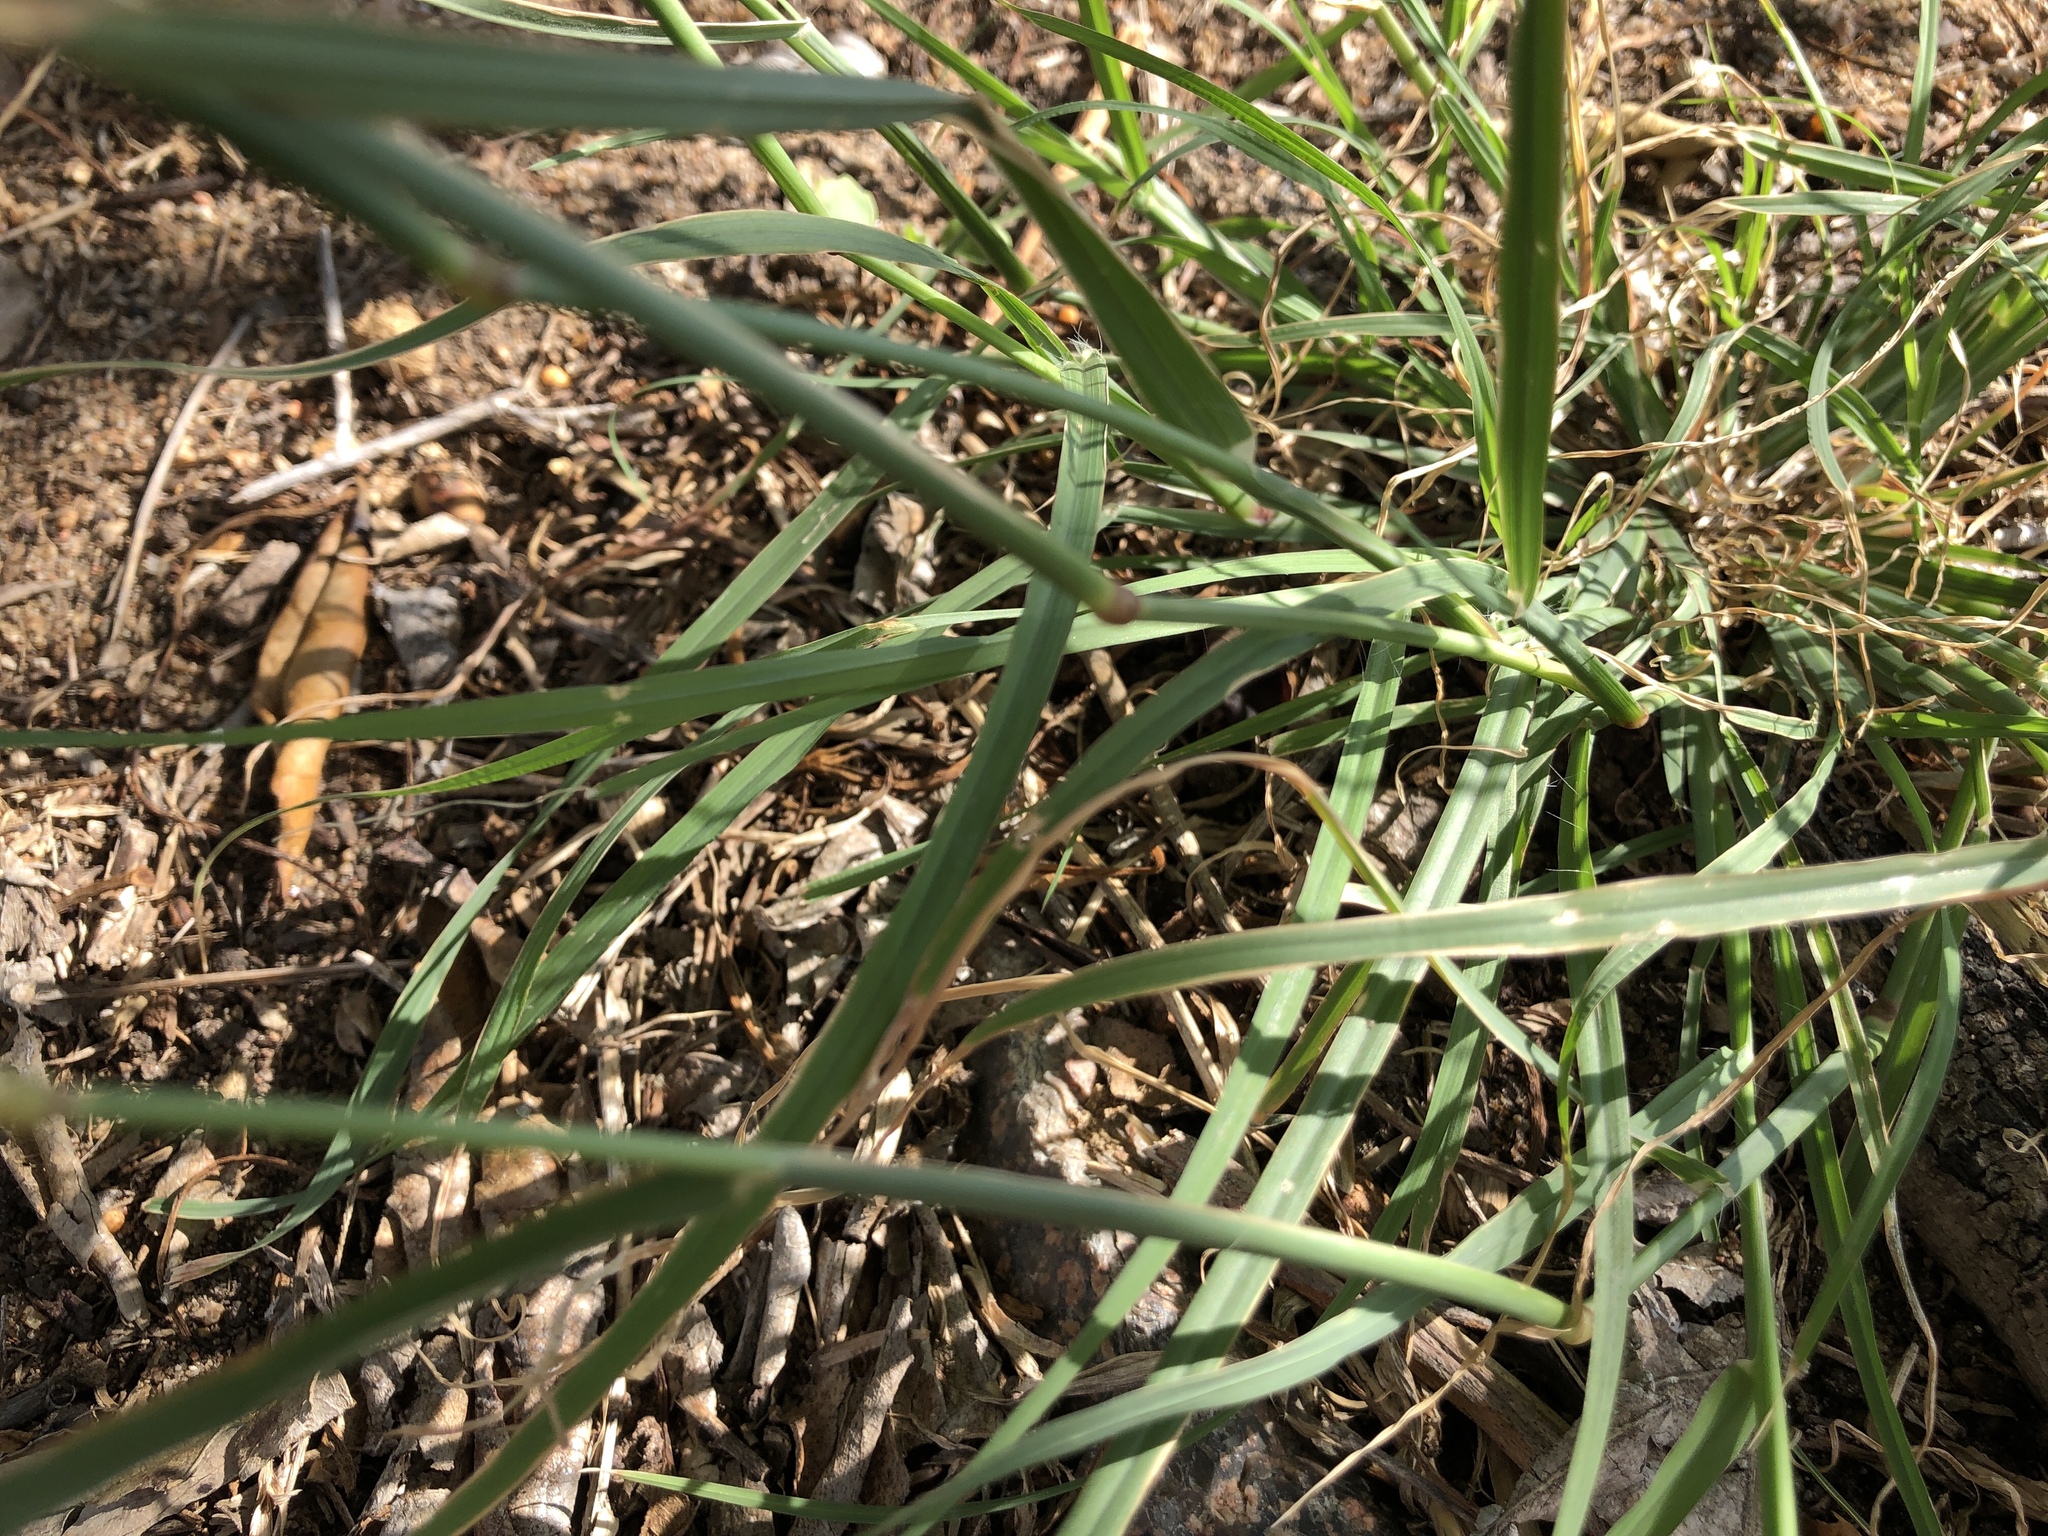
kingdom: Plantae
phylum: Tracheophyta
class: Liliopsida
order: Poales
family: Poaceae
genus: Chloris
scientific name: Chloris barbata
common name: Swollen fingergrass
